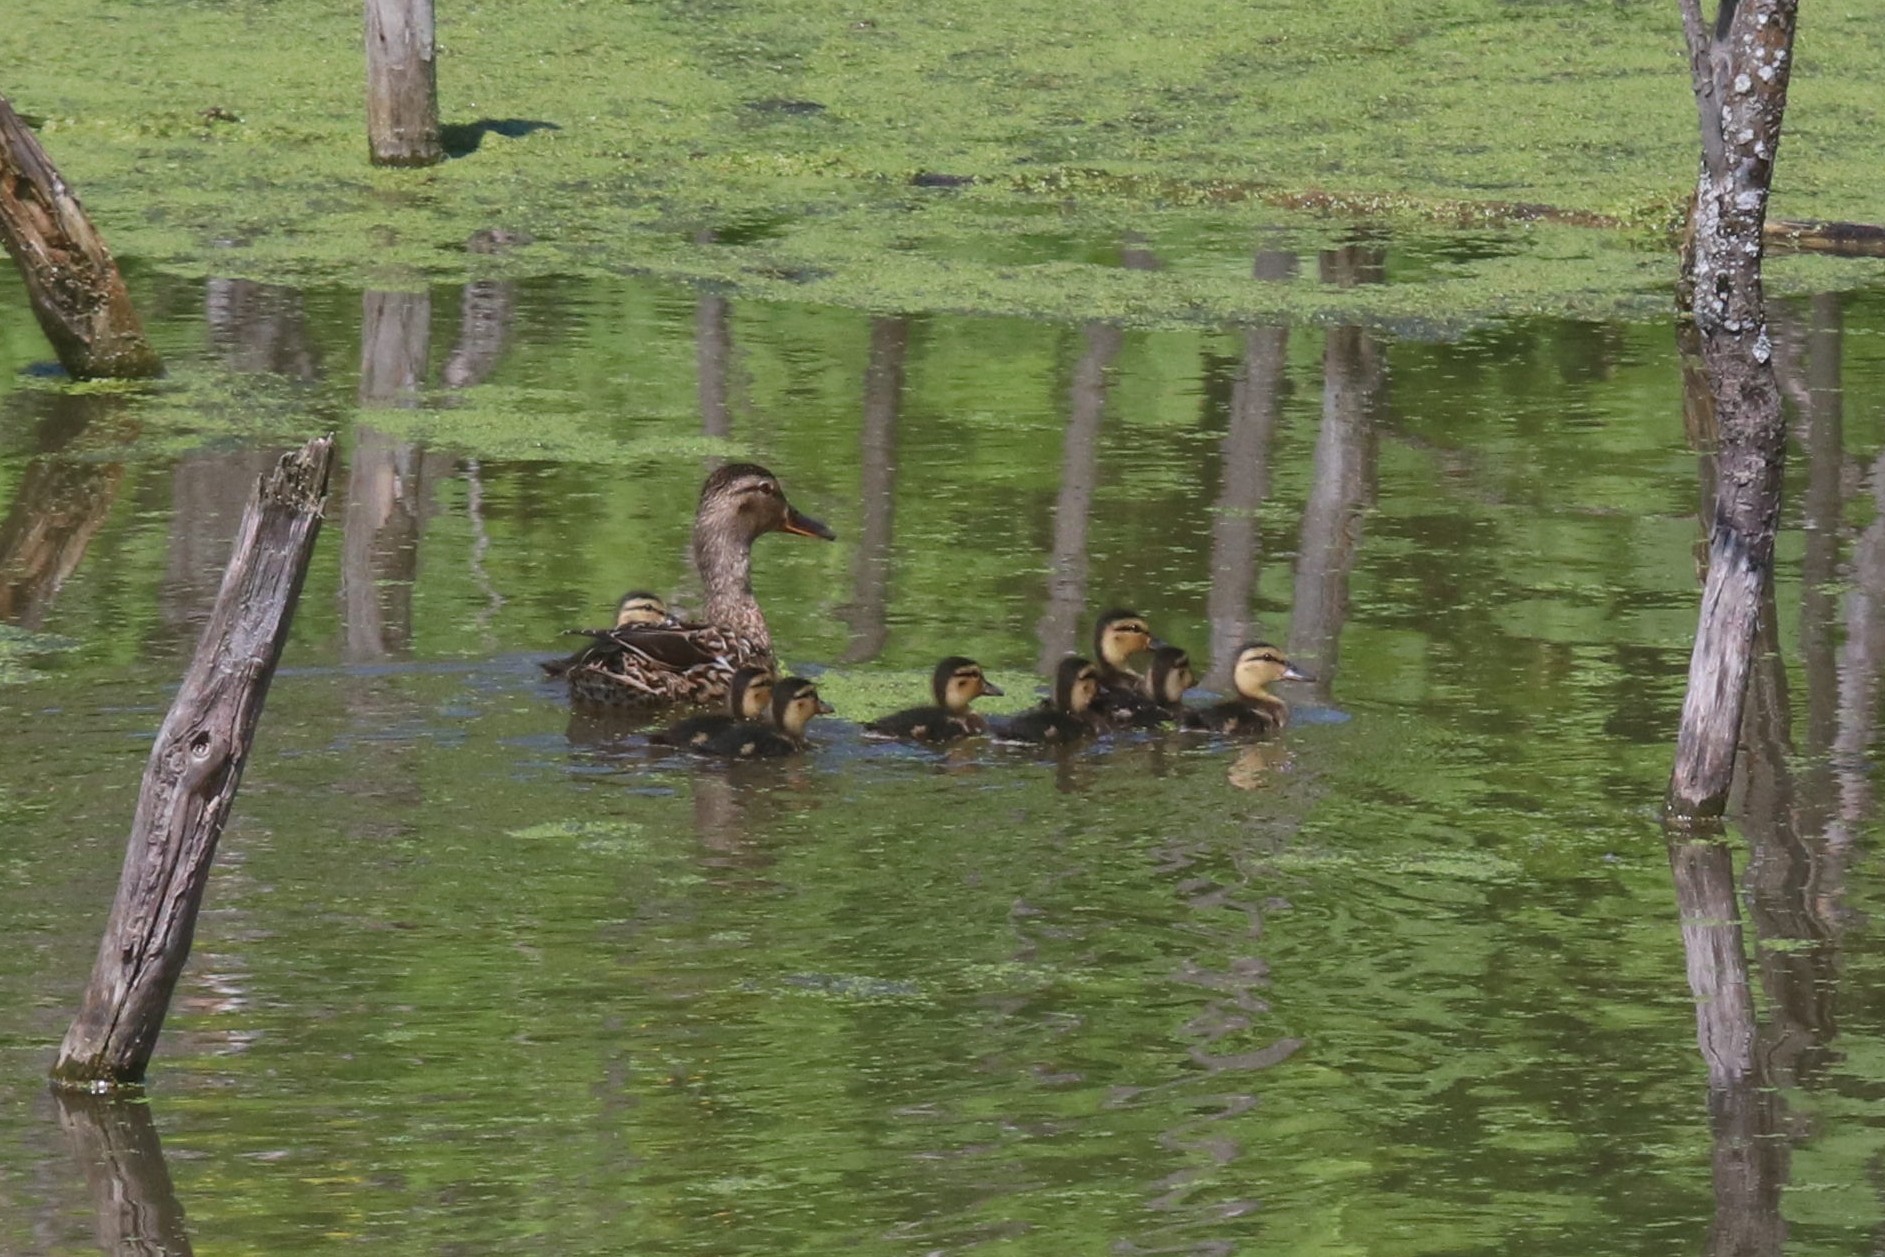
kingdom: Animalia
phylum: Chordata
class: Aves
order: Anseriformes
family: Anatidae
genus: Anas
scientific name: Anas platyrhynchos
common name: Mallard
